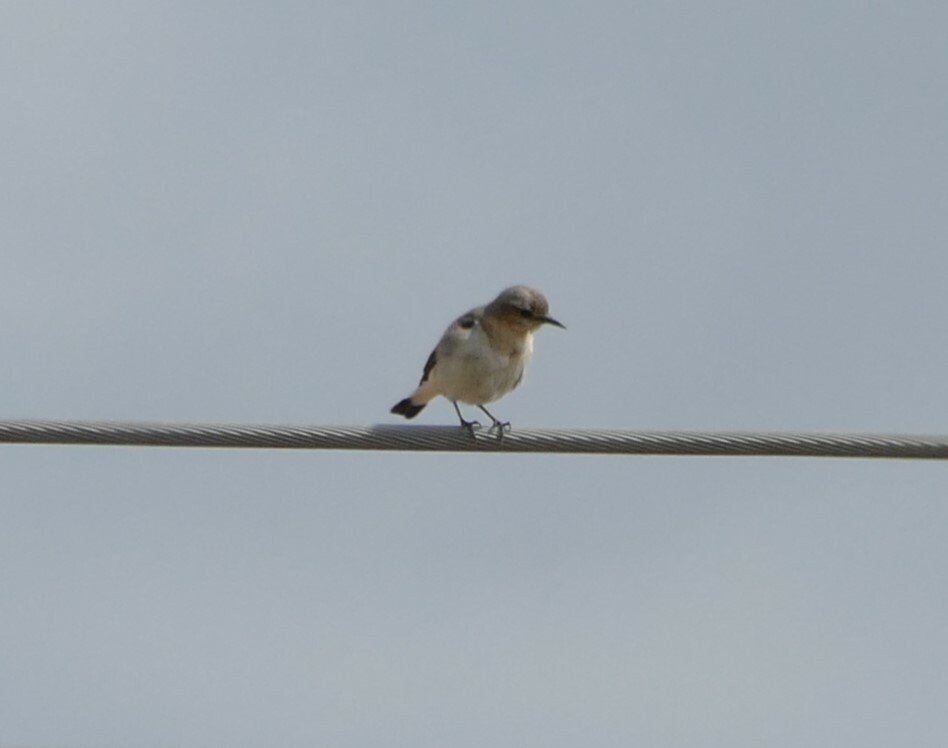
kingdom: Animalia
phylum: Chordata
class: Aves
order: Passeriformes
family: Muscicapidae
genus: Oenanthe
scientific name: Oenanthe oenanthe
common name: Northern wheatear
